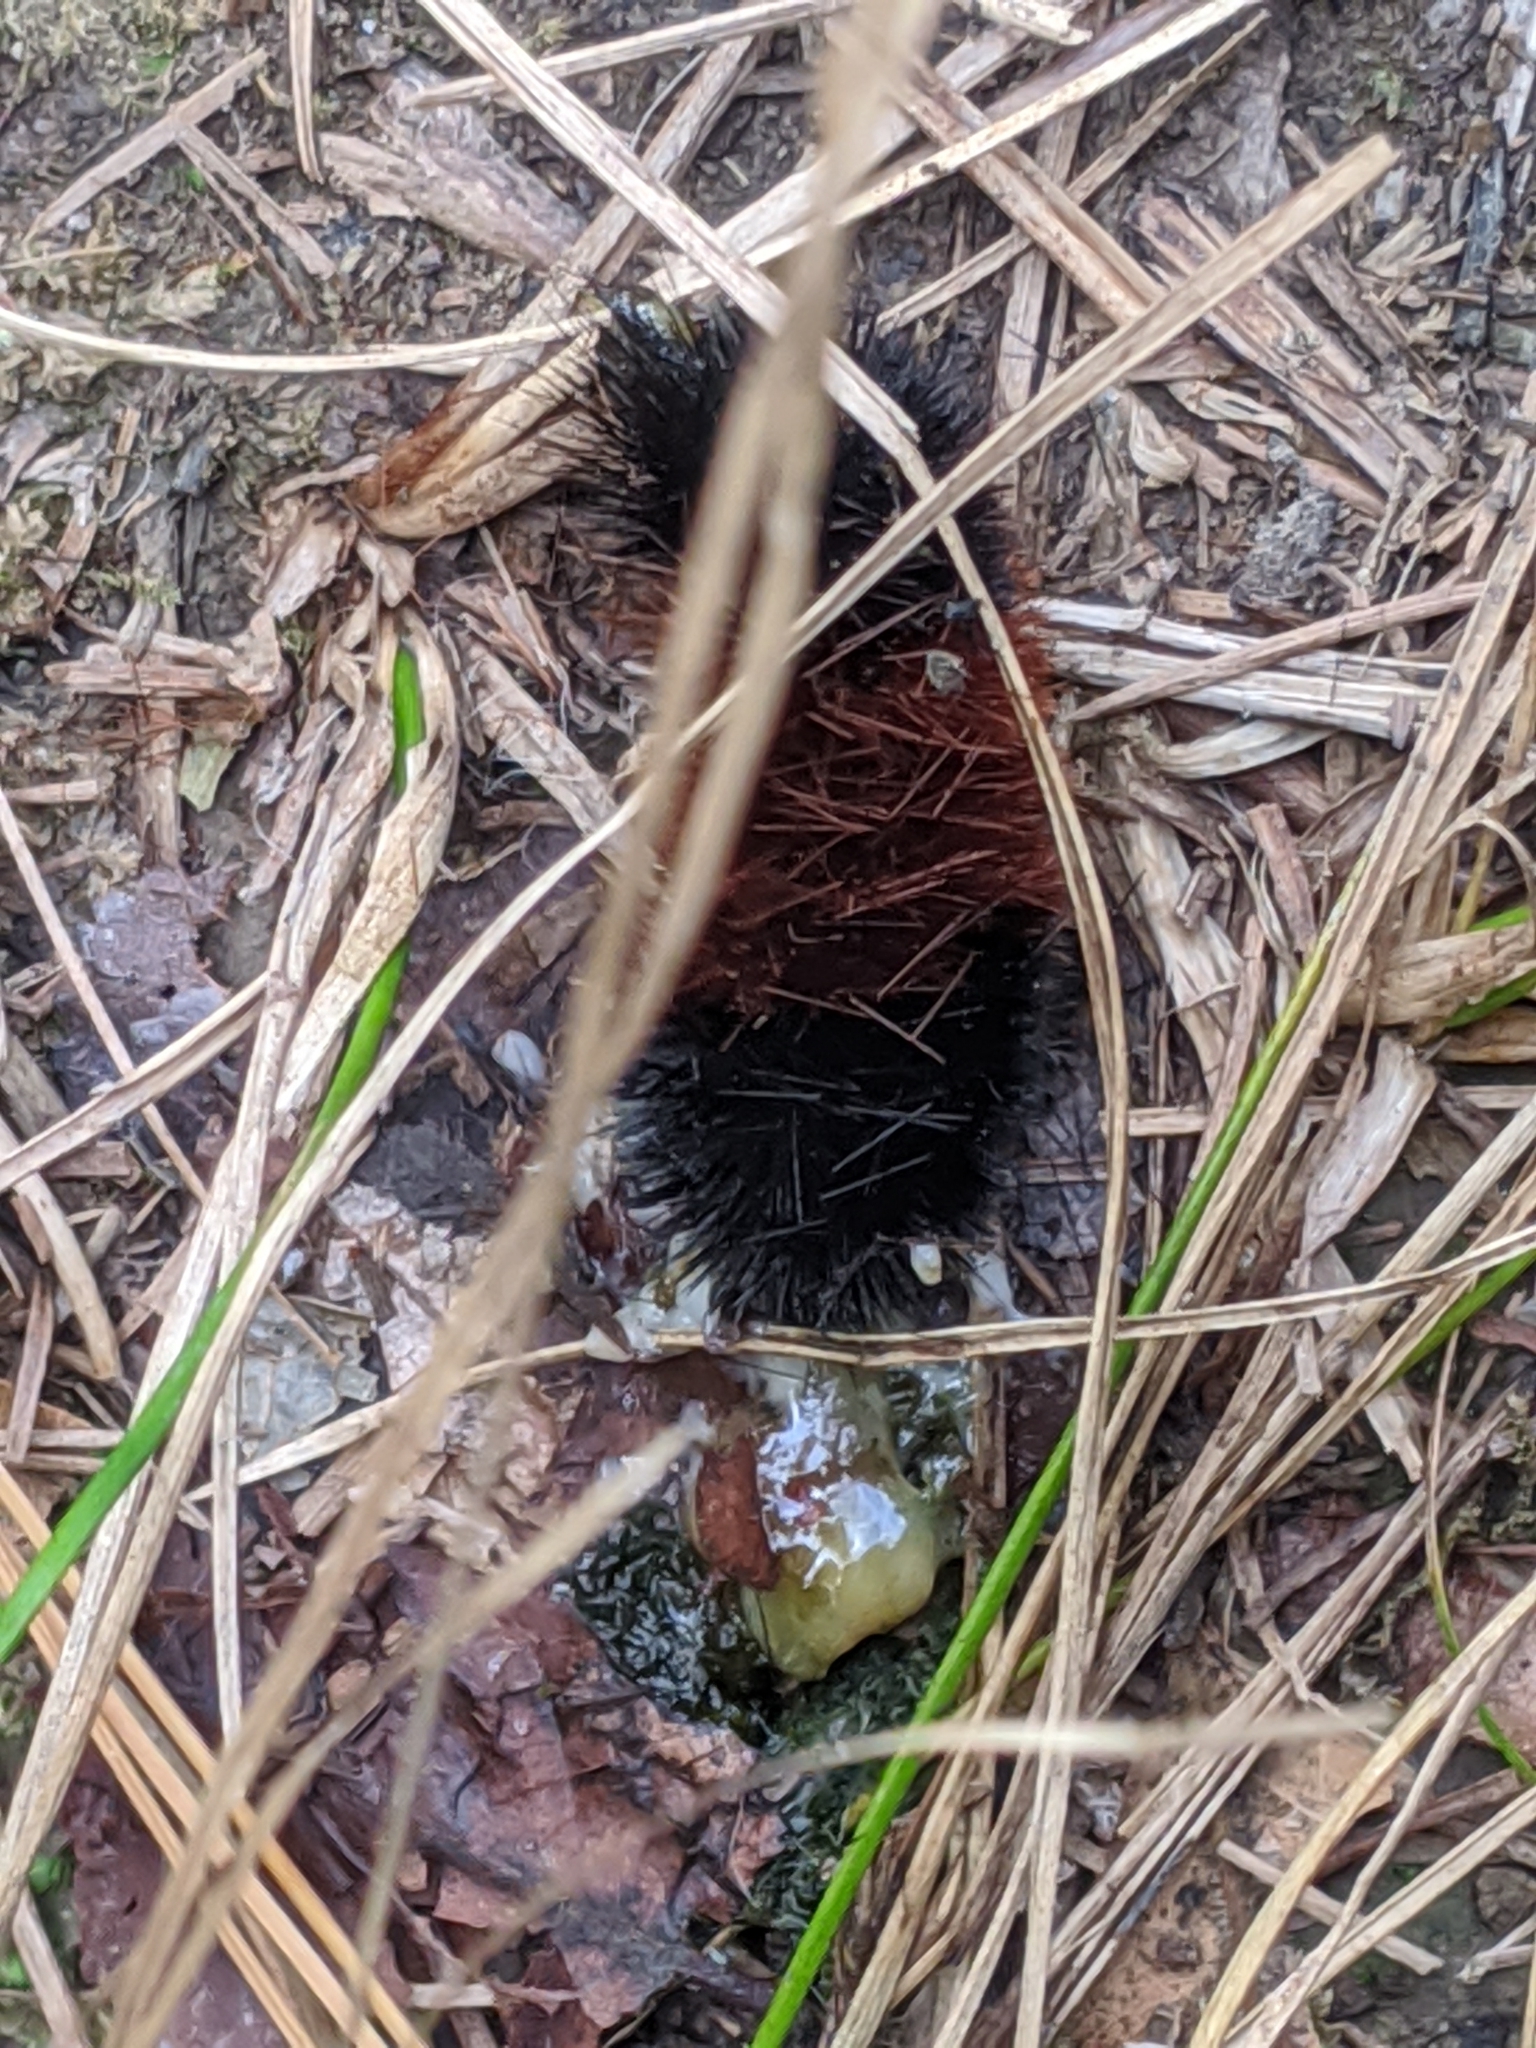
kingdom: Animalia
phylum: Arthropoda
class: Insecta
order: Lepidoptera
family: Erebidae
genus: Pyrrharctia
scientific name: Pyrrharctia isabella
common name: Isabella tiger moth
